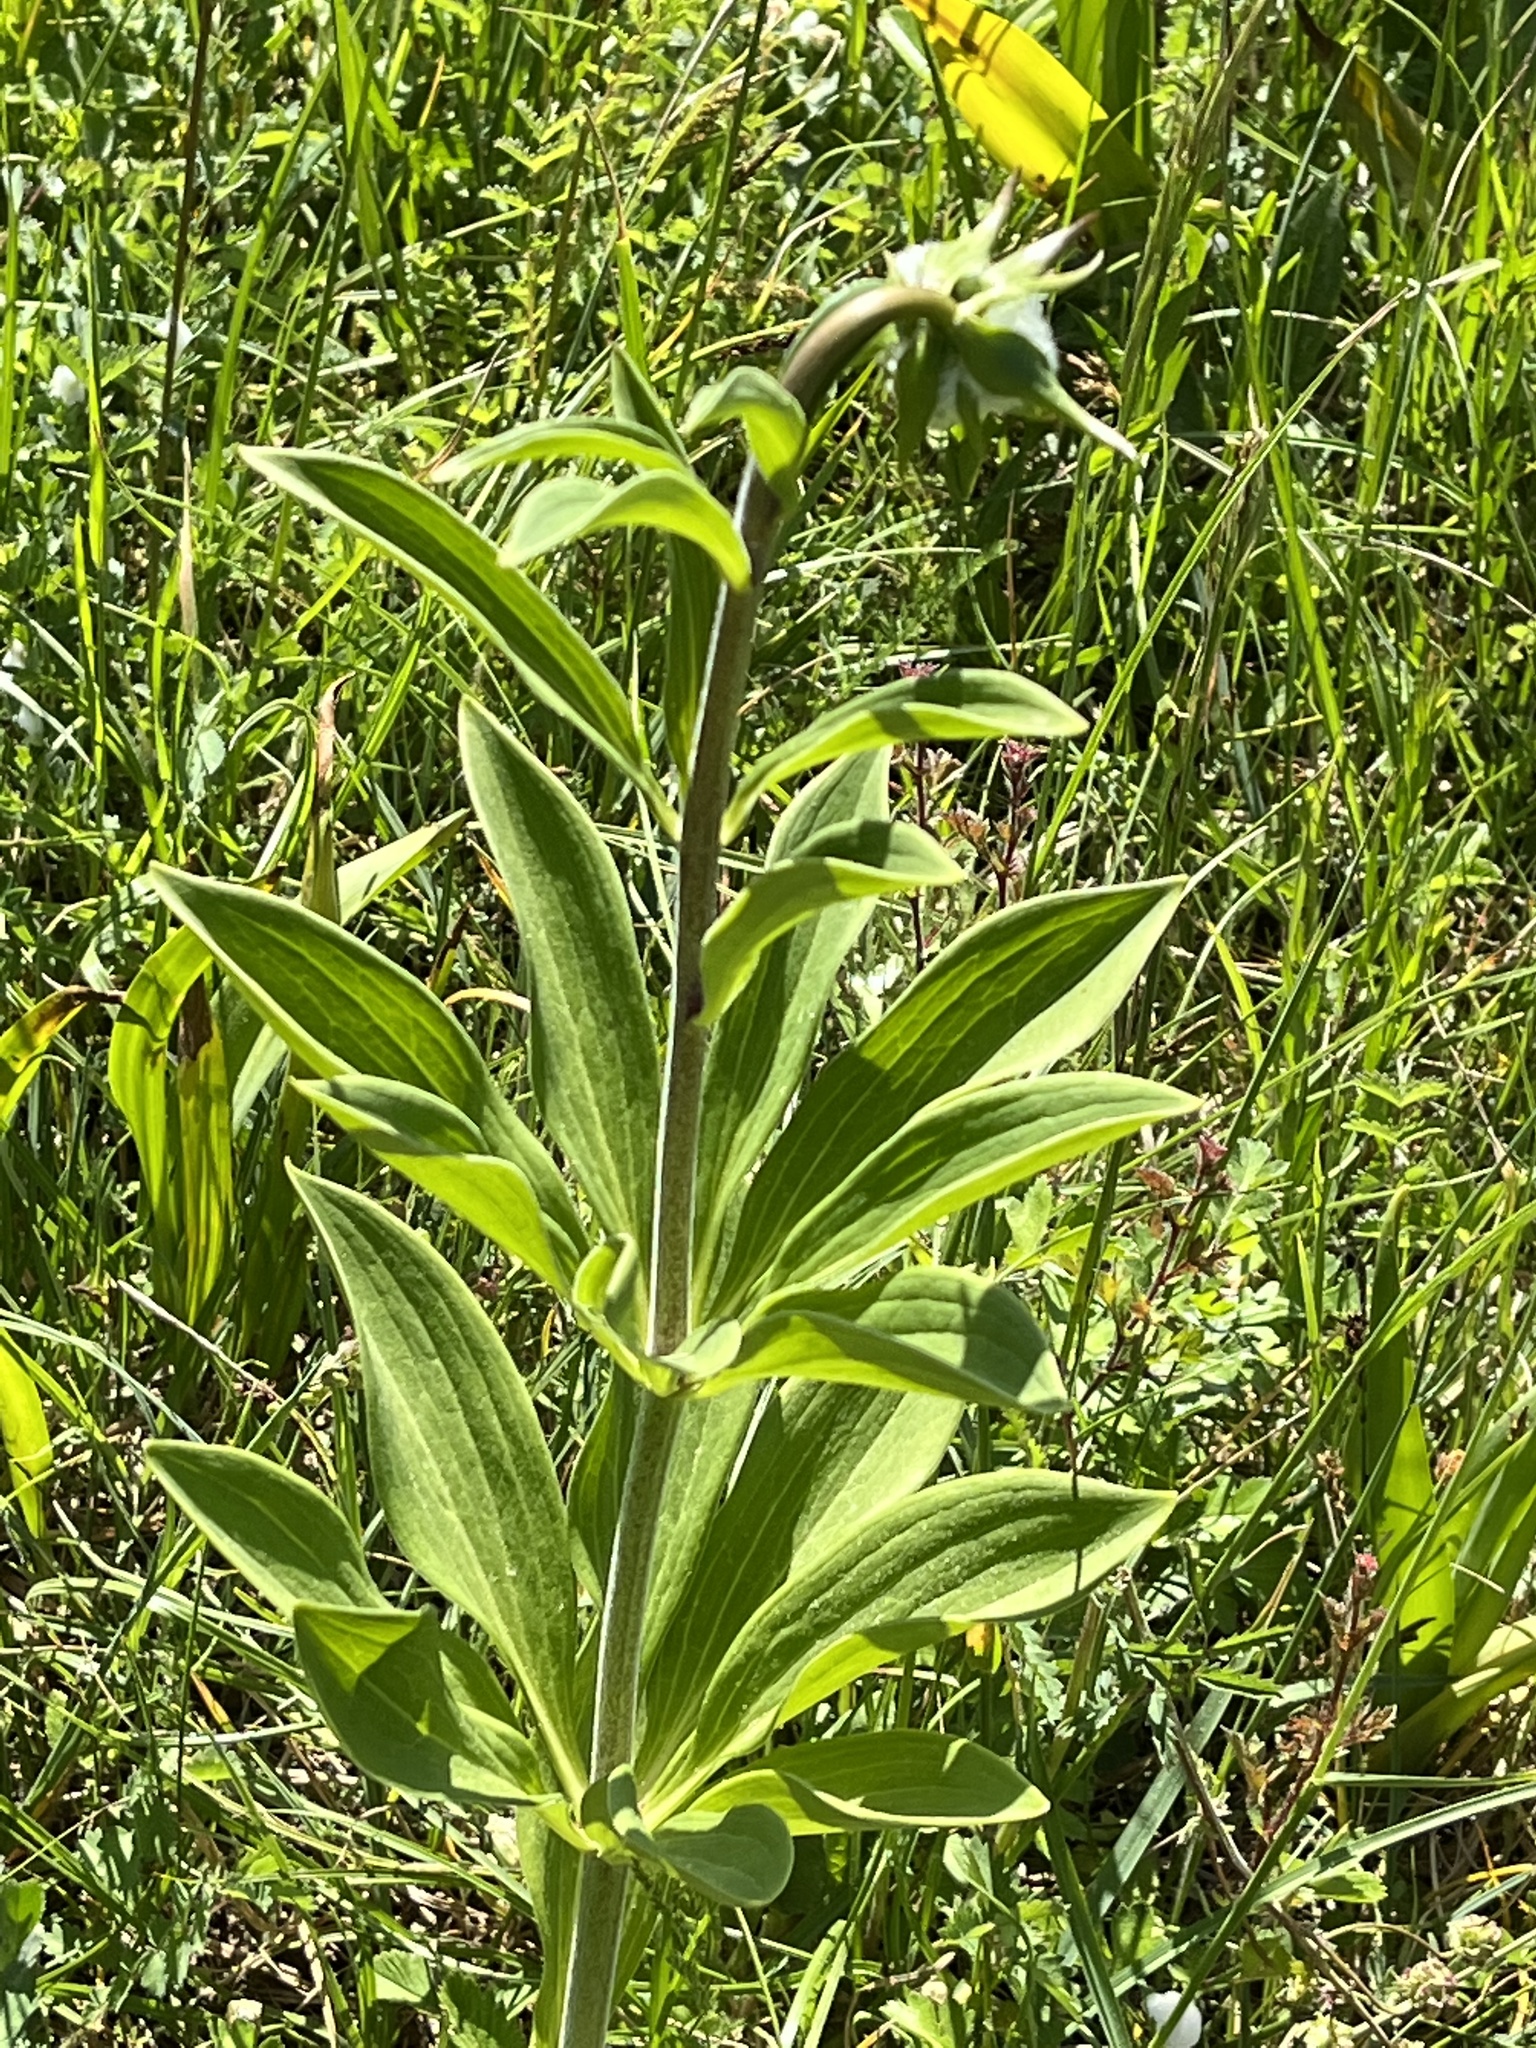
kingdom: Plantae
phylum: Tracheophyta
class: Liliopsida
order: Liliales
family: Liliaceae
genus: Lilium
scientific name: Lilium martagon
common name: Martagon lily
